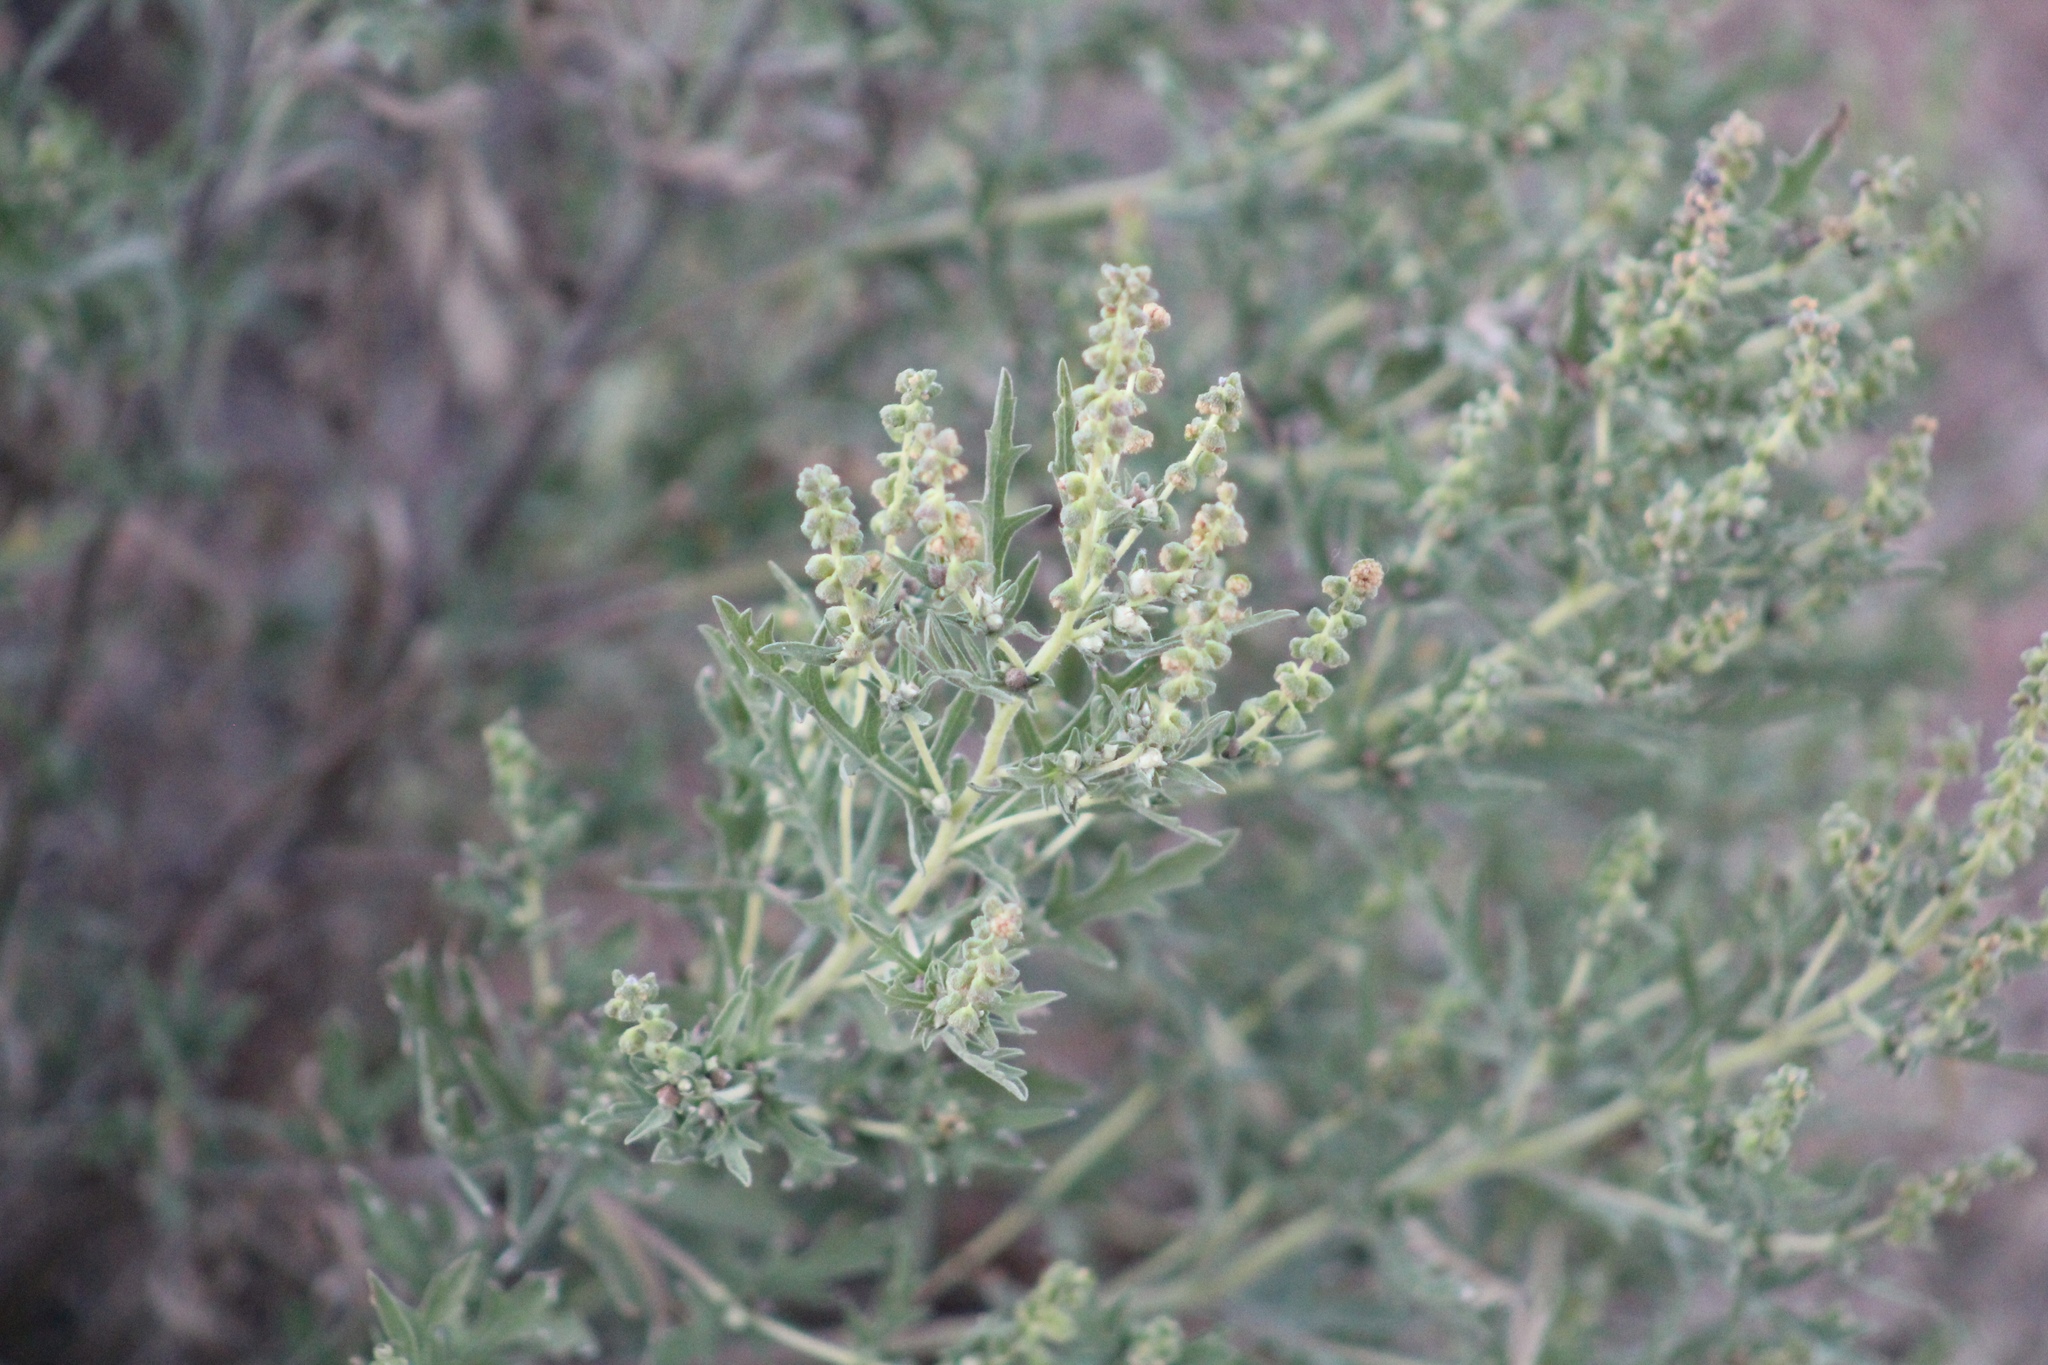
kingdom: Plantae
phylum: Tracheophyta
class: Magnoliopsida
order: Asterales
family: Asteraceae
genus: Ambrosia
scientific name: Ambrosia psilostachya
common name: Perennial ragweed
